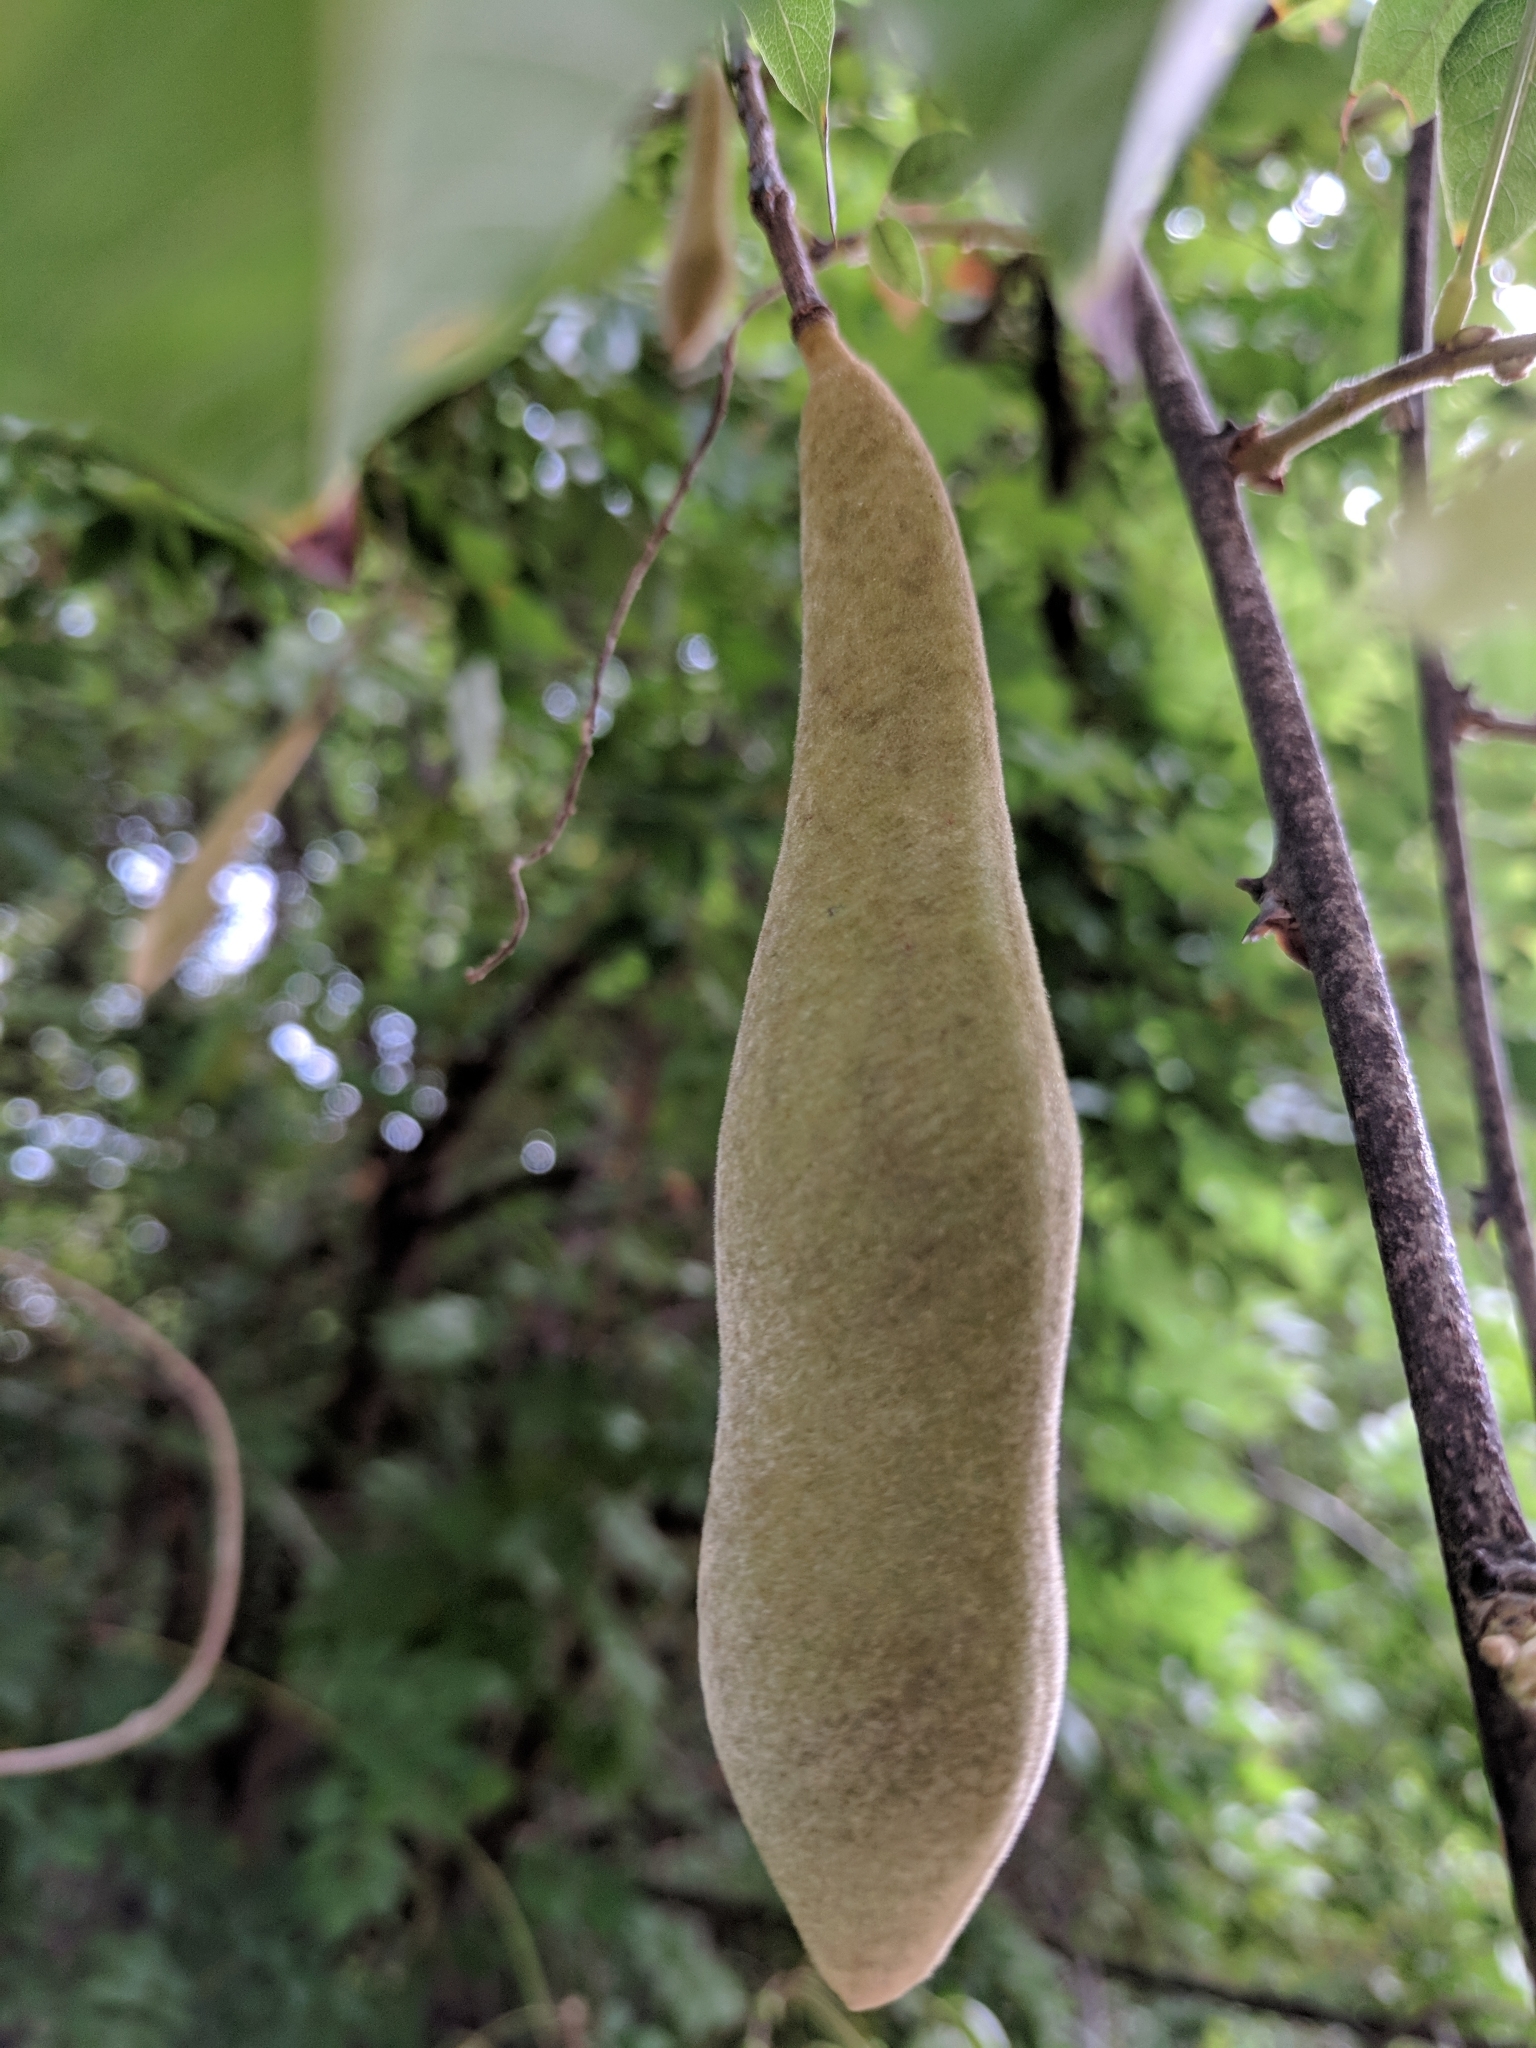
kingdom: Plantae
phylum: Tracheophyta
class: Magnoliopsida
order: Fabales
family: Fabaceae
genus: Wisteria
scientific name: Wisteria sinensis
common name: Chinese wisteria
